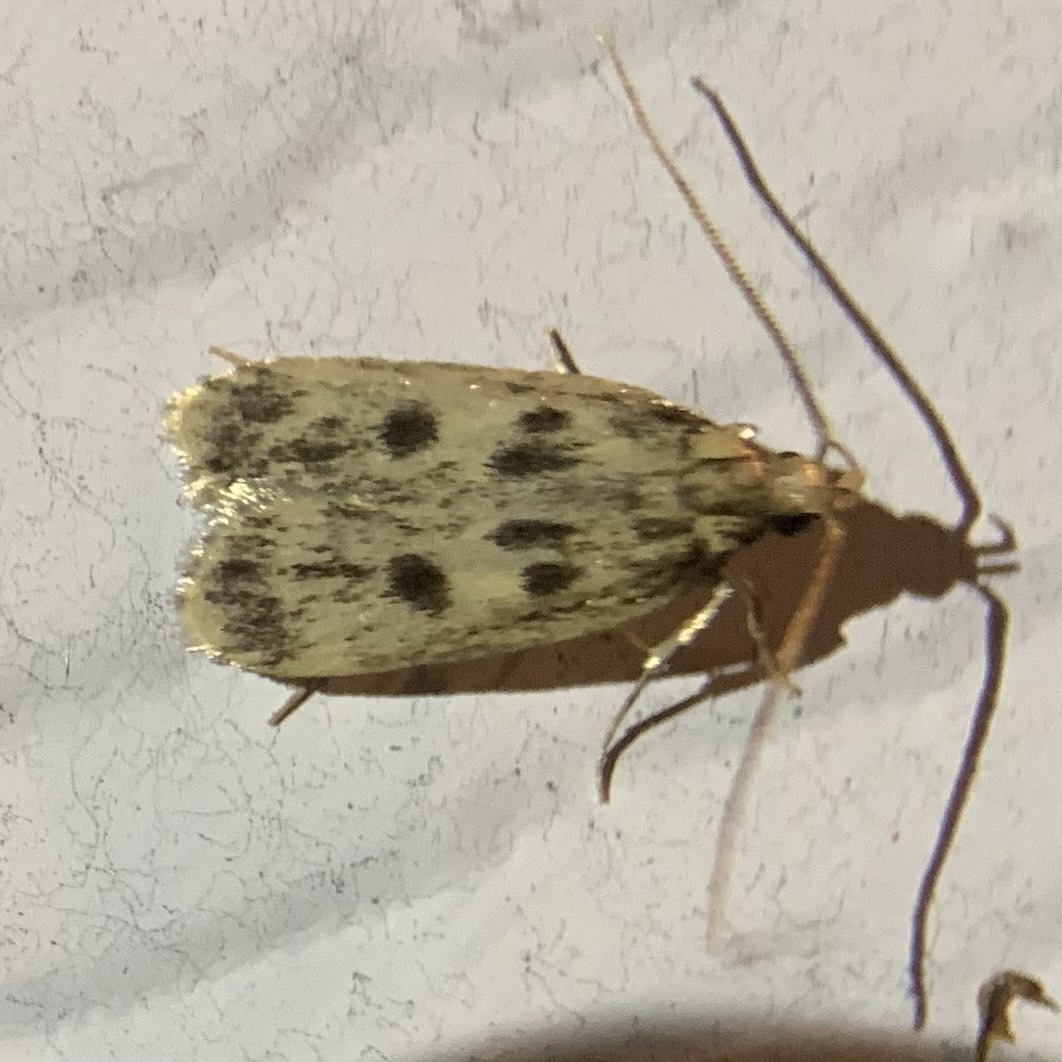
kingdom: Animalia
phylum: Arthropoda
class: Insecta
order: Lepidoptera
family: Lecithoceridae
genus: Martyringa
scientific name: Martyringa latipennis
